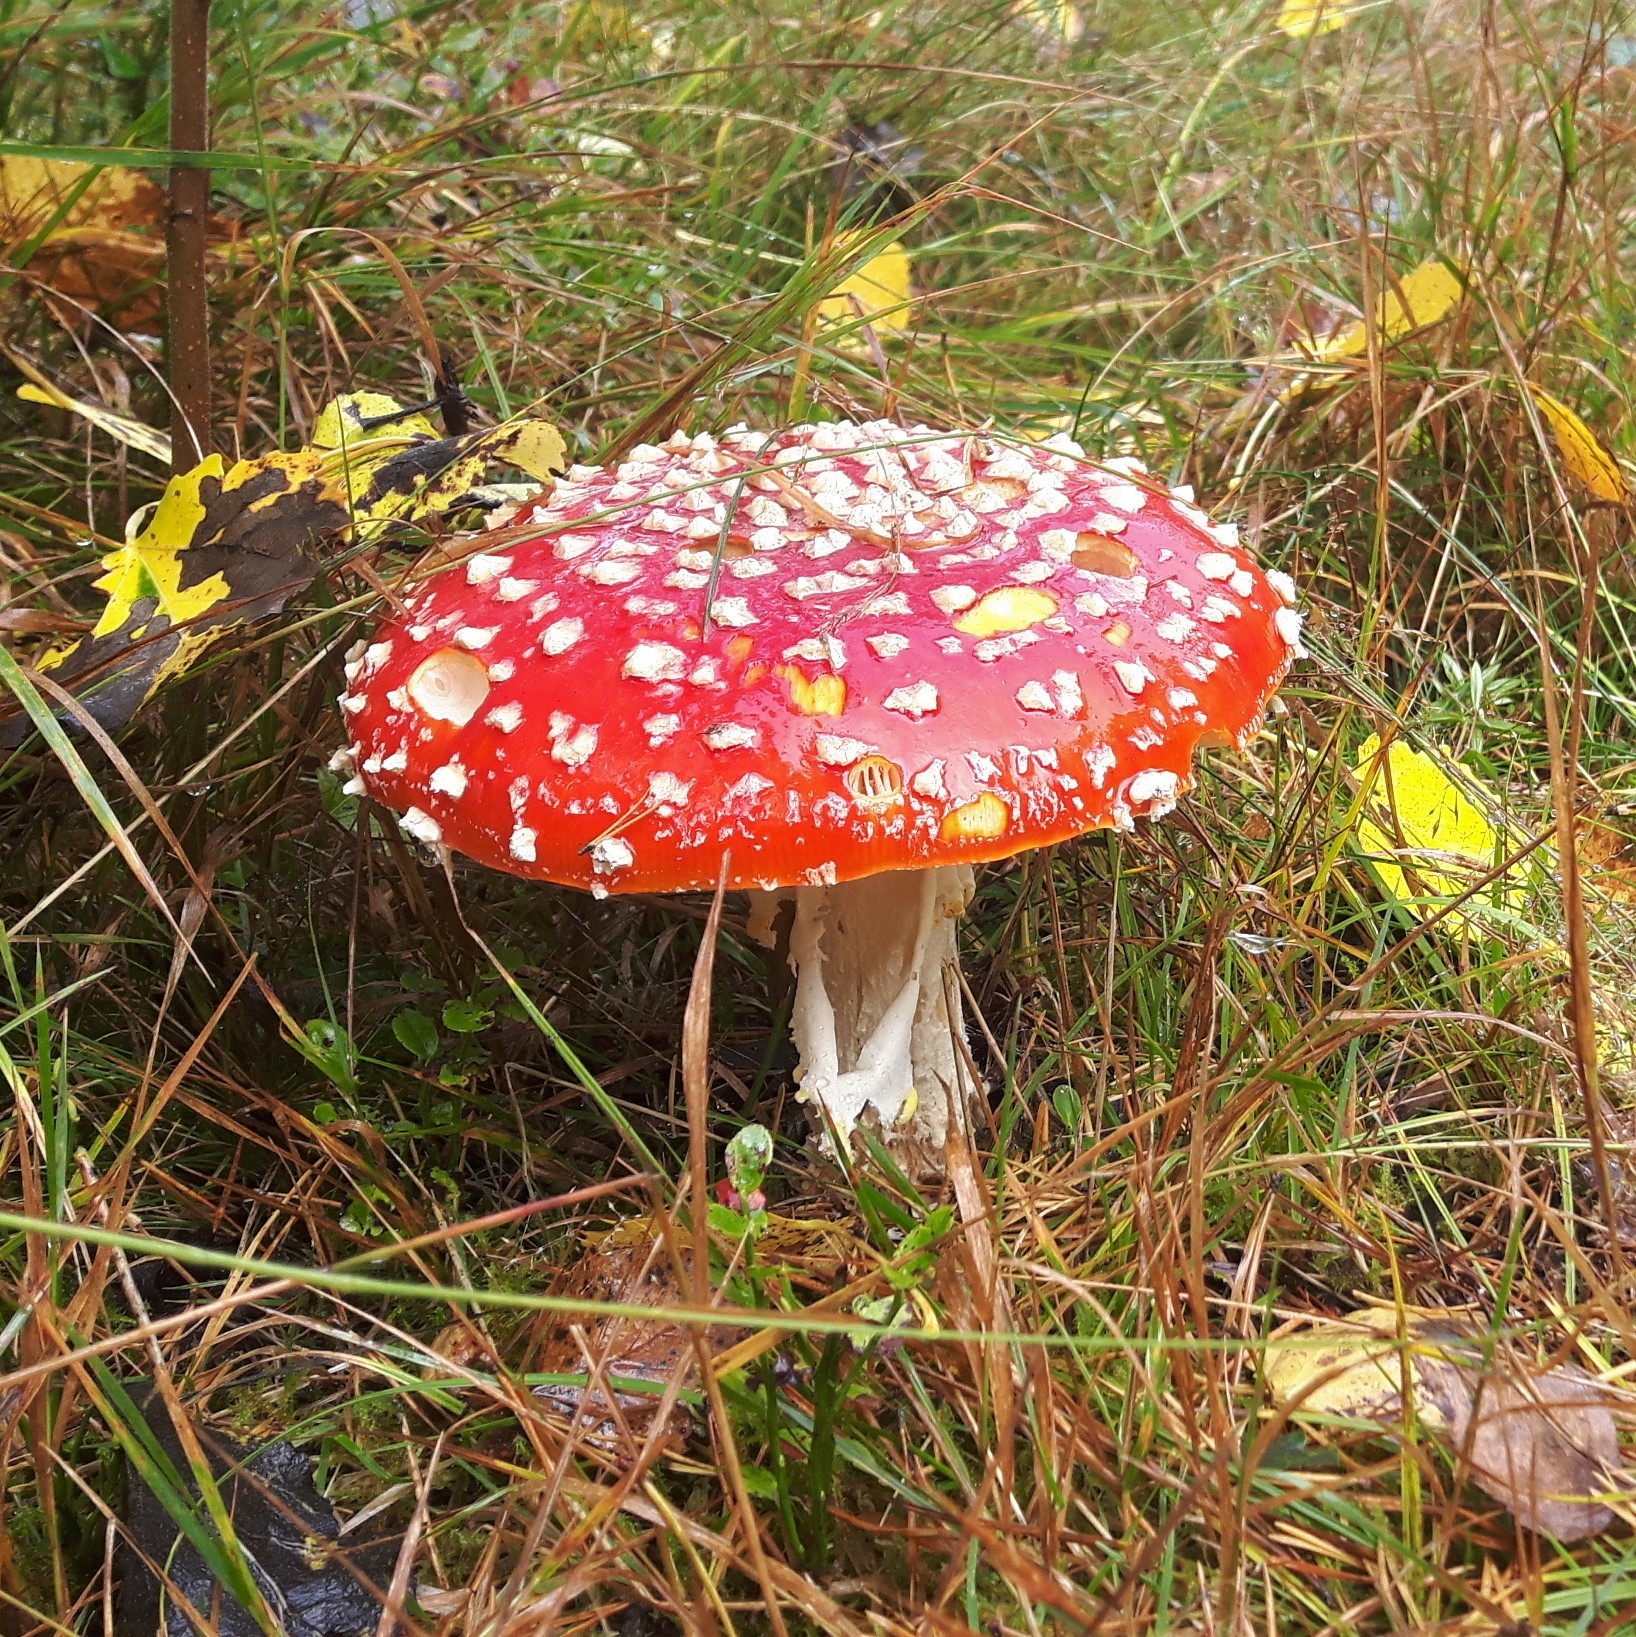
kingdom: Fungi
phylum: Basidiomycota
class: Agaricomycetes
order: Agaricales
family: Amanitaceae
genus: Amanita
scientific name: Amanita muscaria
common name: Fly agaric
